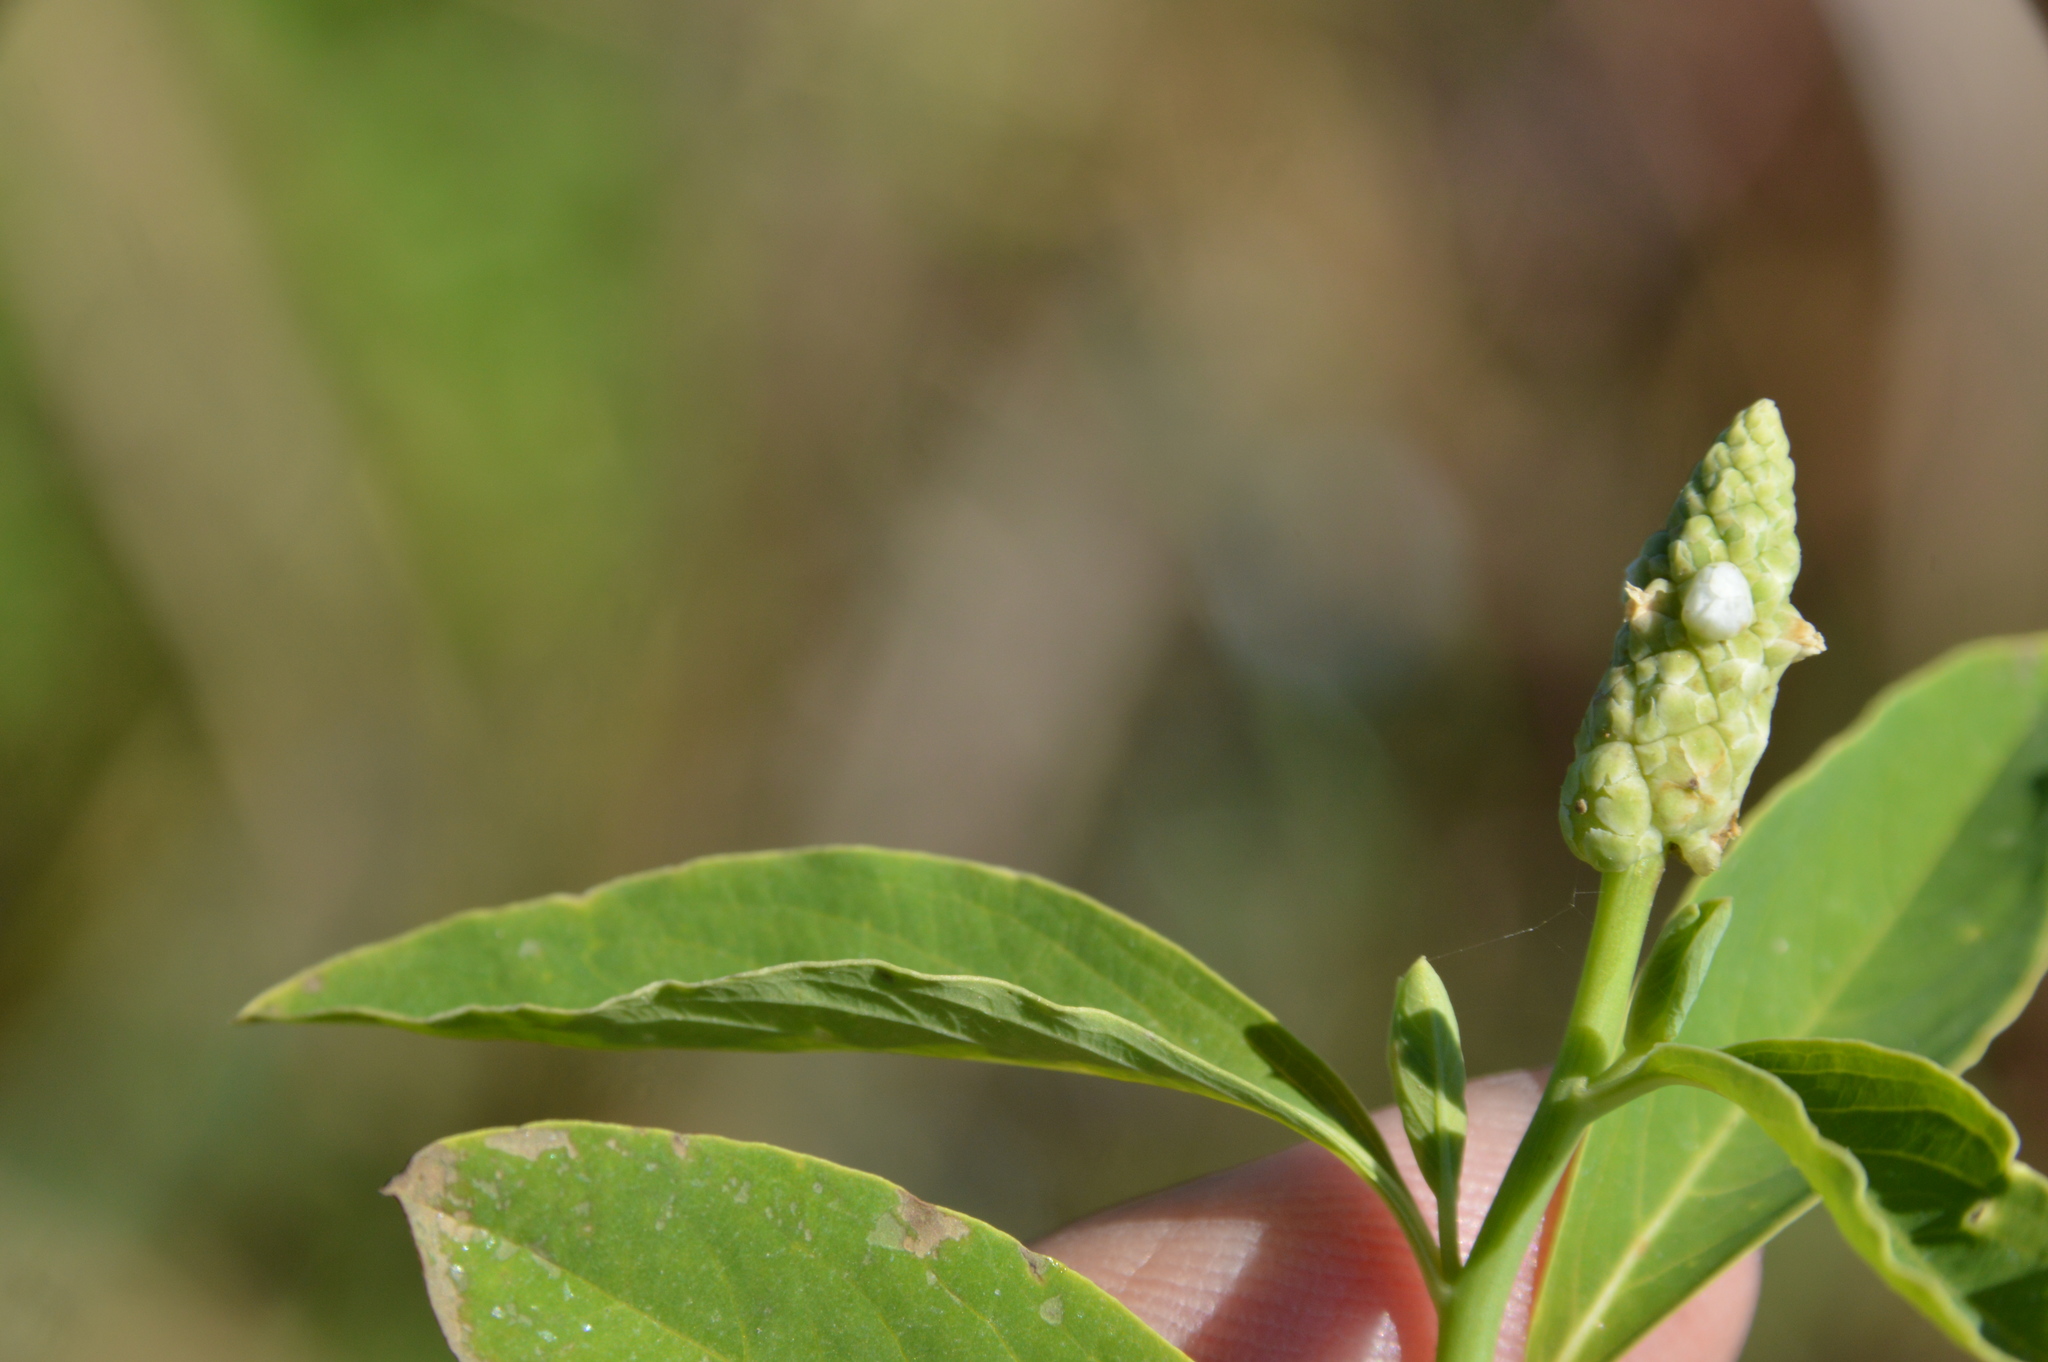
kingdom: Plantae
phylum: Tracheophyta
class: Magnoliopsida
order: Solanales
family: Sphenocleaceae
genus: Sphenoclea
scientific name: Sphenoclea zeylanica
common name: Chickenspike
